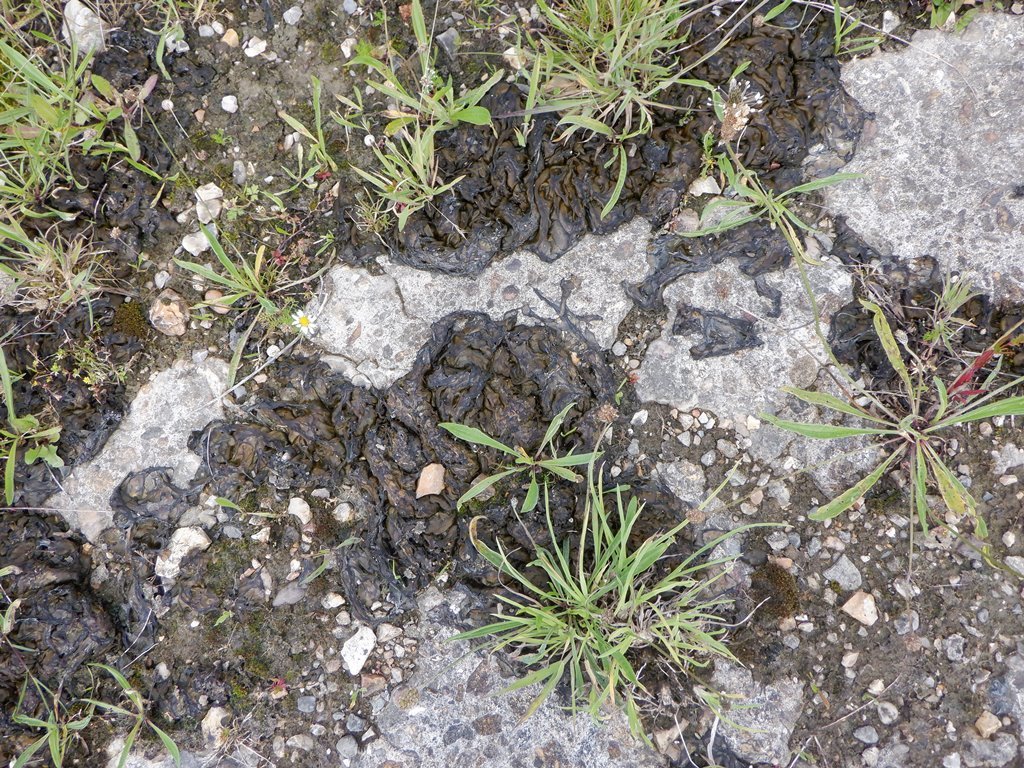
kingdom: Bacteria
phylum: Cyanobacteria
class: Cyanobacteriia
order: Cyanobacteriales
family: Nostocaceae
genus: Nostoc
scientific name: Nostoc commune
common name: Star jelly
